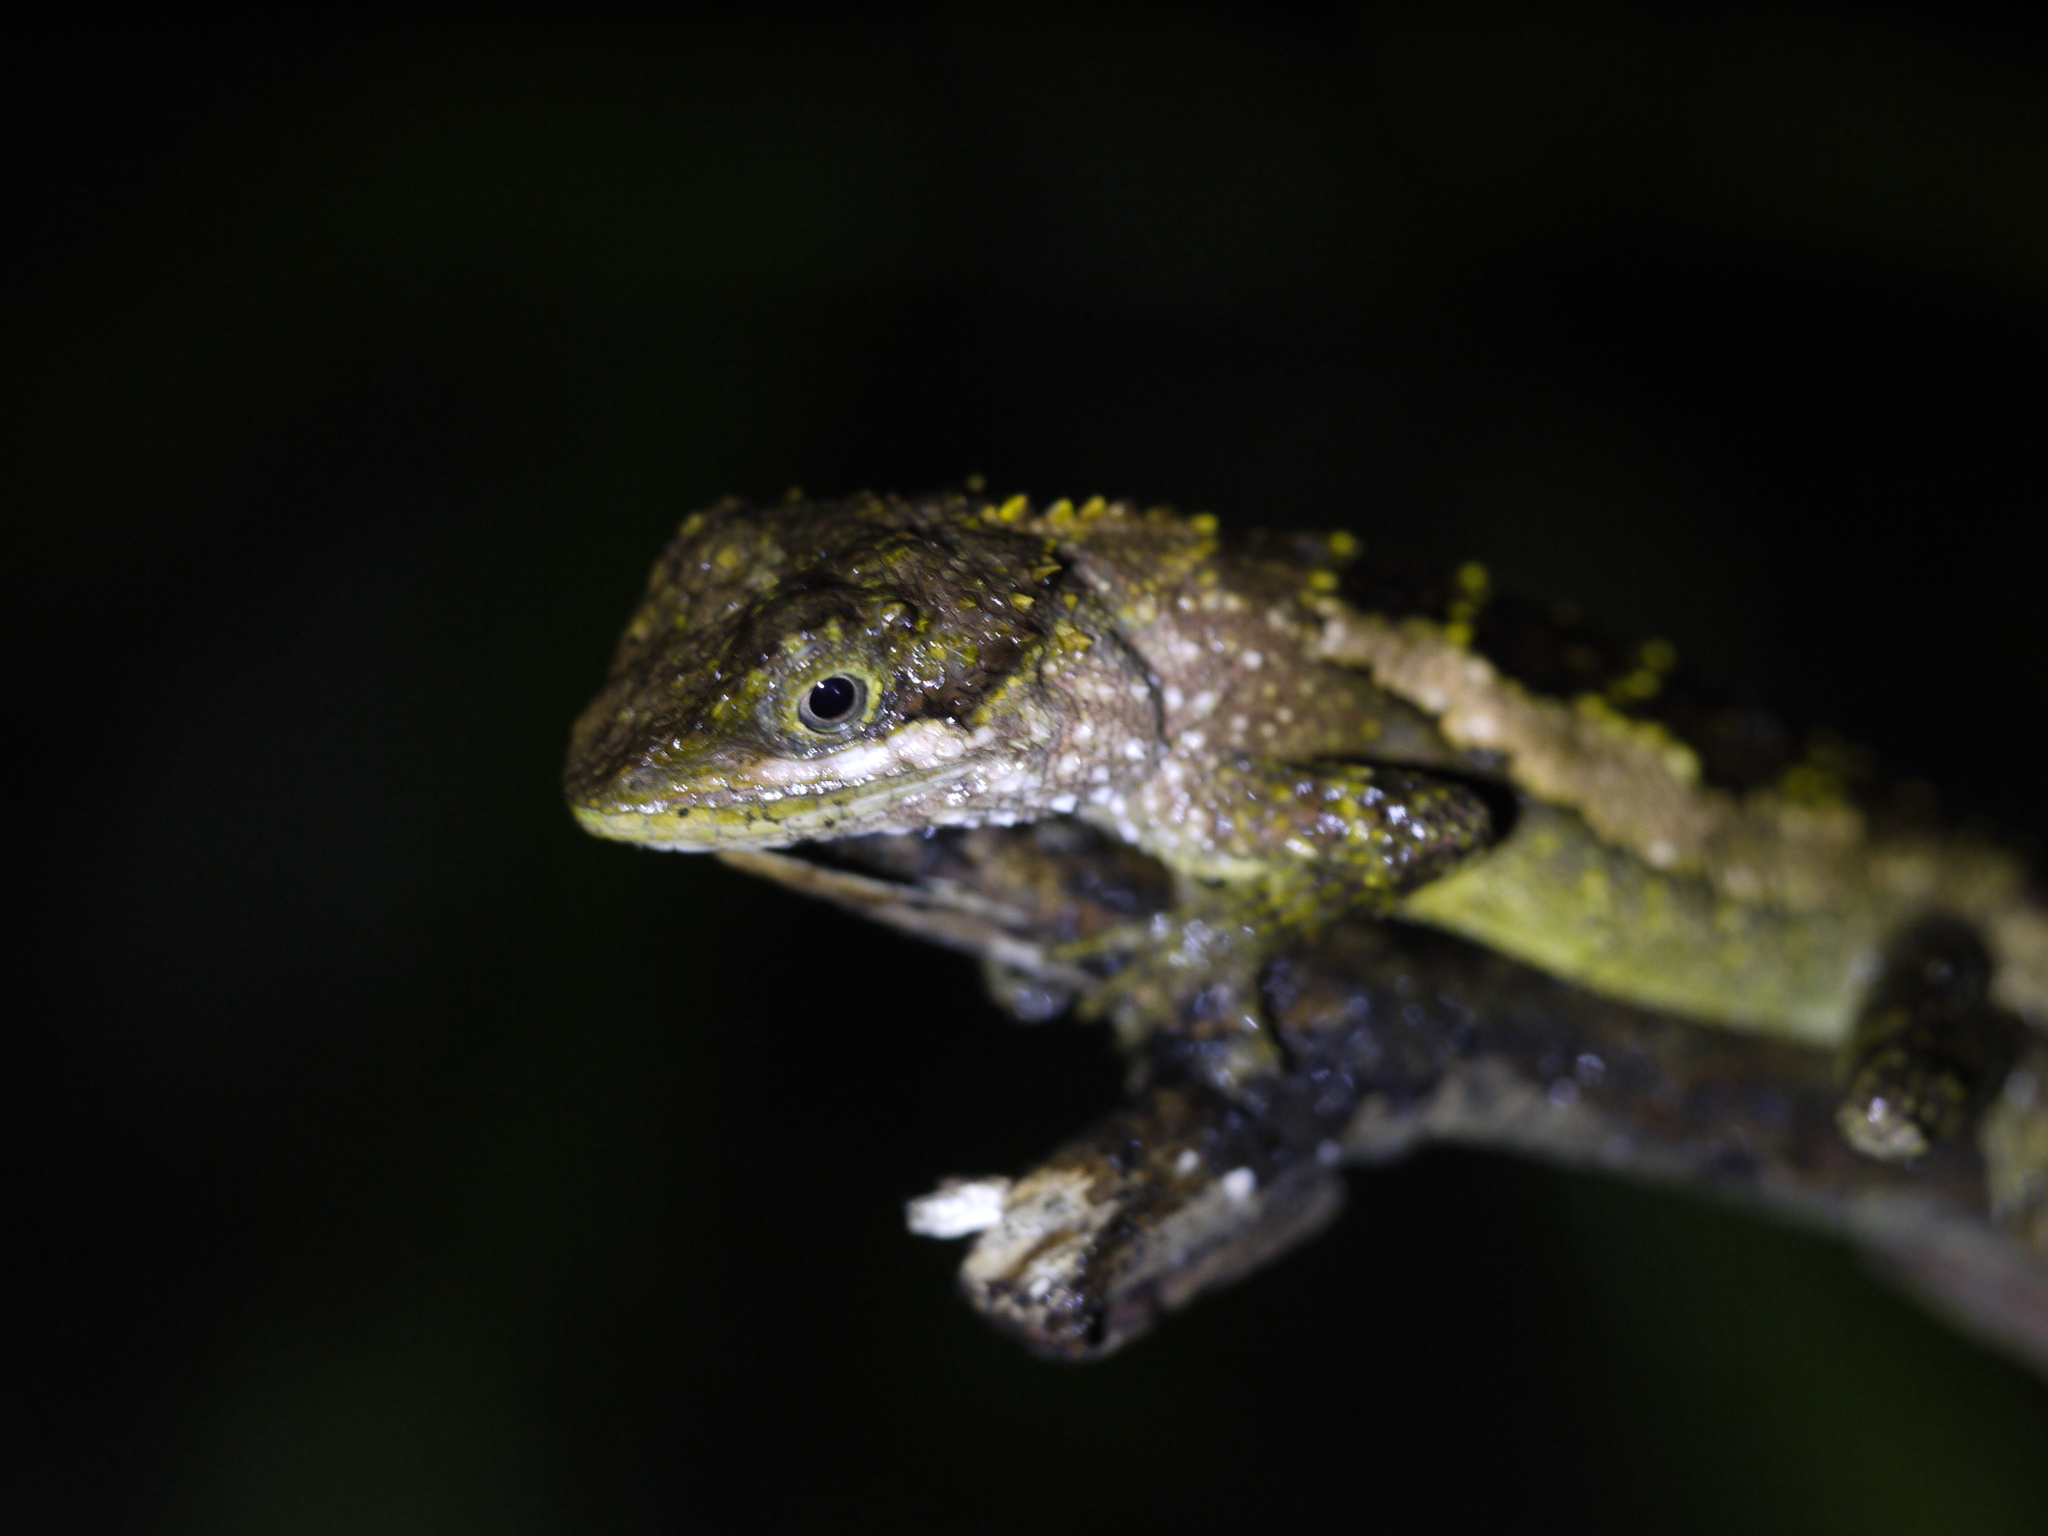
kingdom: Fungi
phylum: Basidiomycota
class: Agaricomycetes
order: Boletales
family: Diplocystidiaceae
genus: Diploderma
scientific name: Diploderma polygonatum
